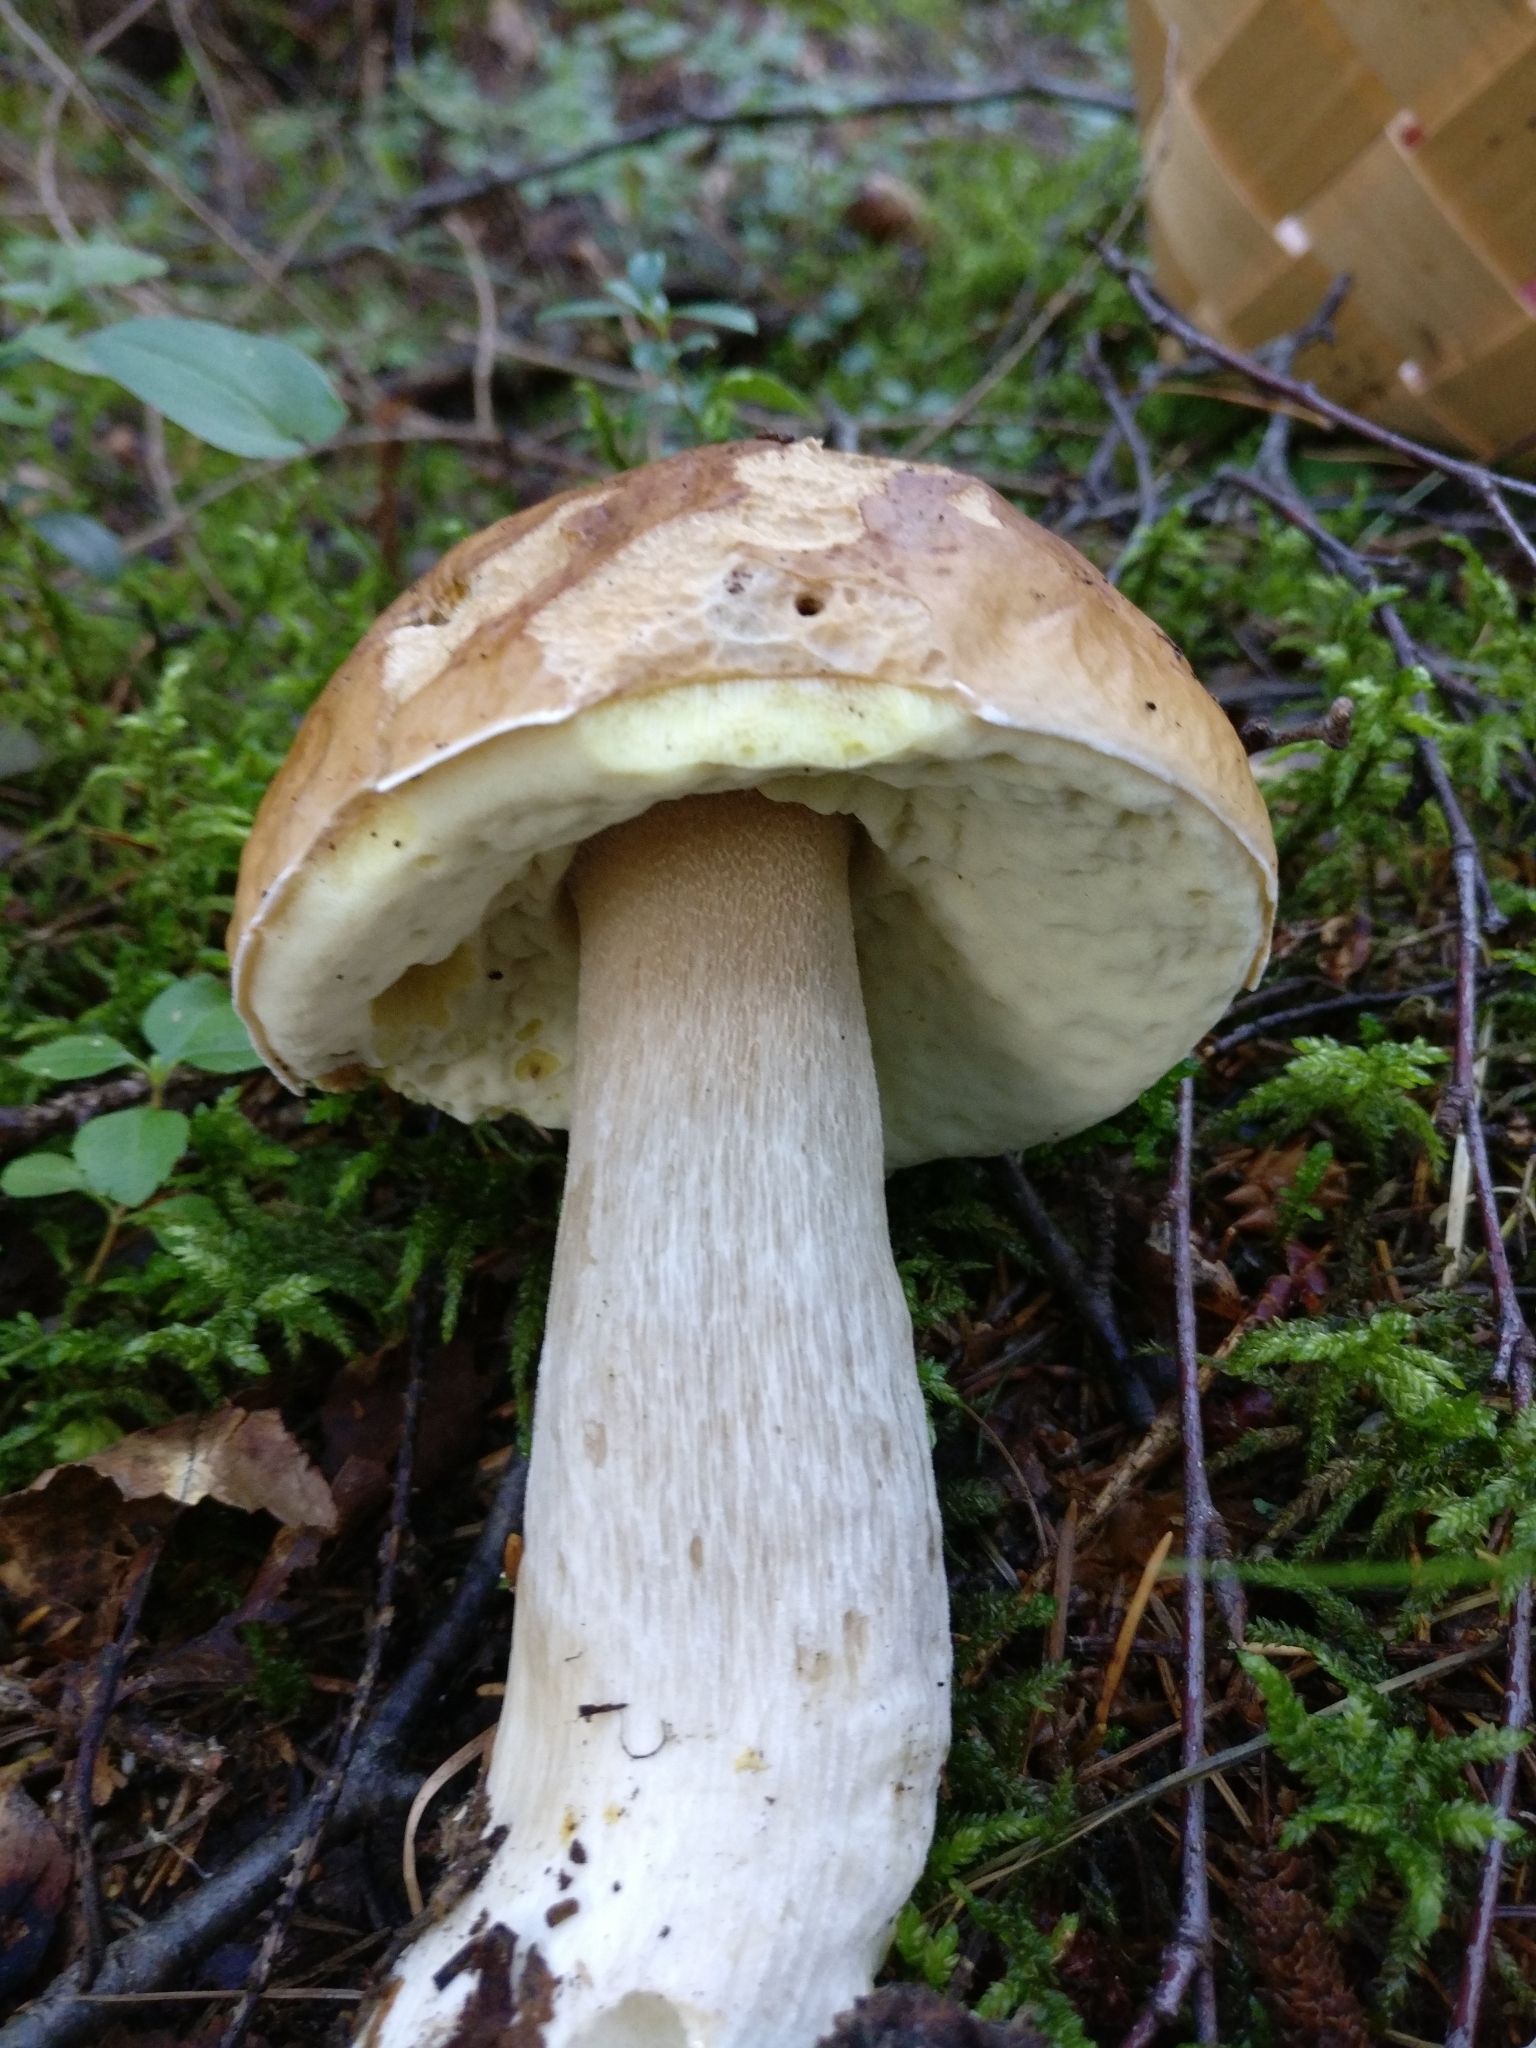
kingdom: Fungi
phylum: Basidiomycota
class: Agaricomycetes
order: Boletales
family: Boletaceae
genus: Boletus
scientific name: Boletus edulis
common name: Cep
